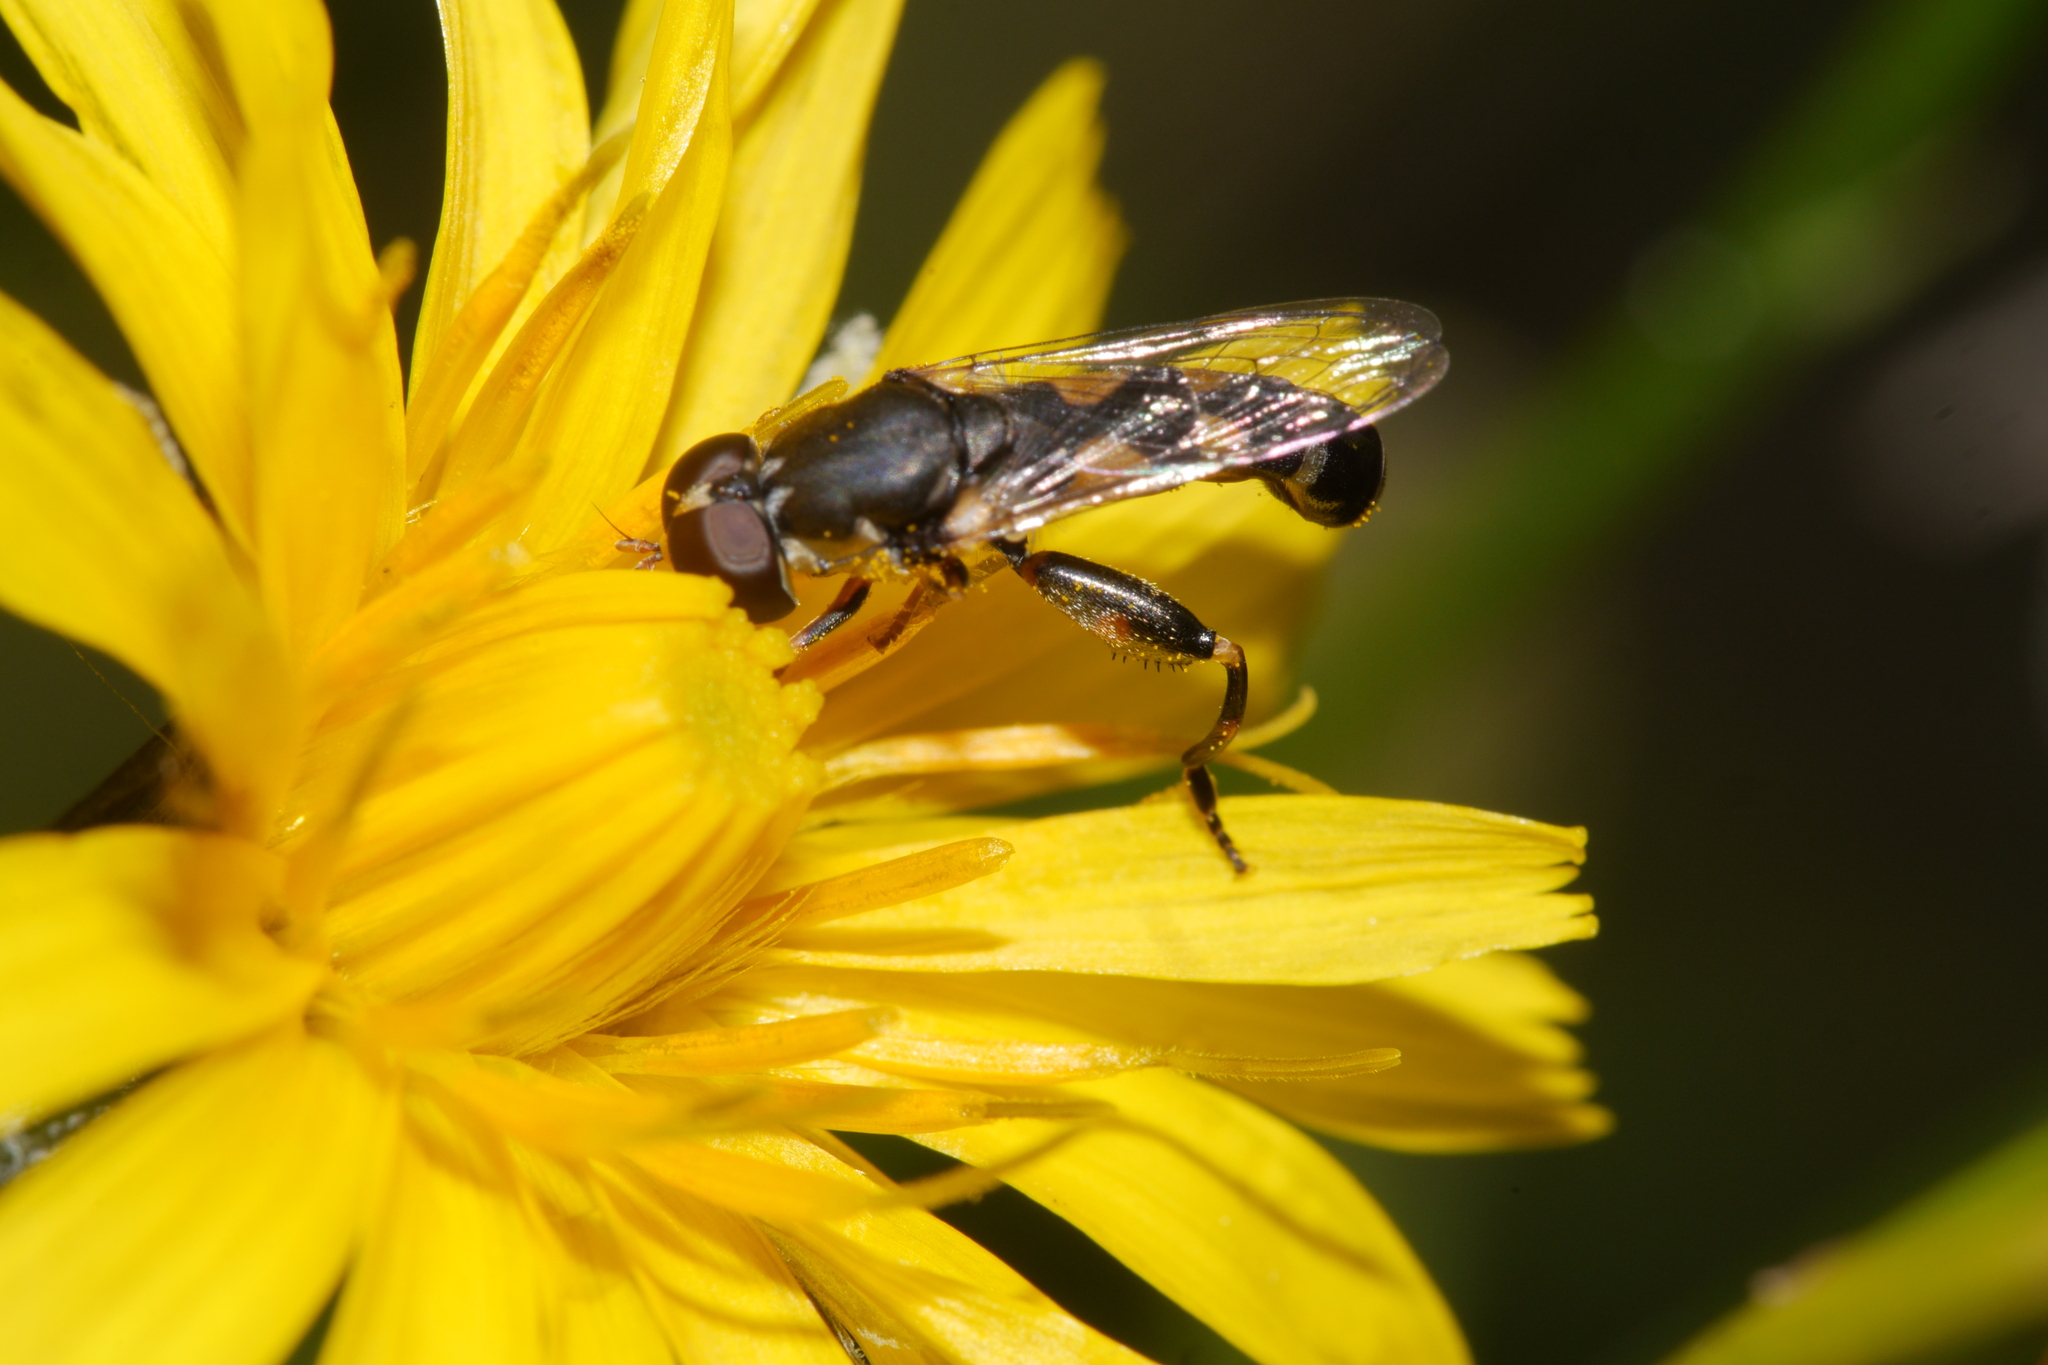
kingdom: Animalia
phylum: Arthropoda
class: Insecta
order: Diptera
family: Syrphidae
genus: Syritta
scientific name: Syritta pipiens
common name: Hover fly
